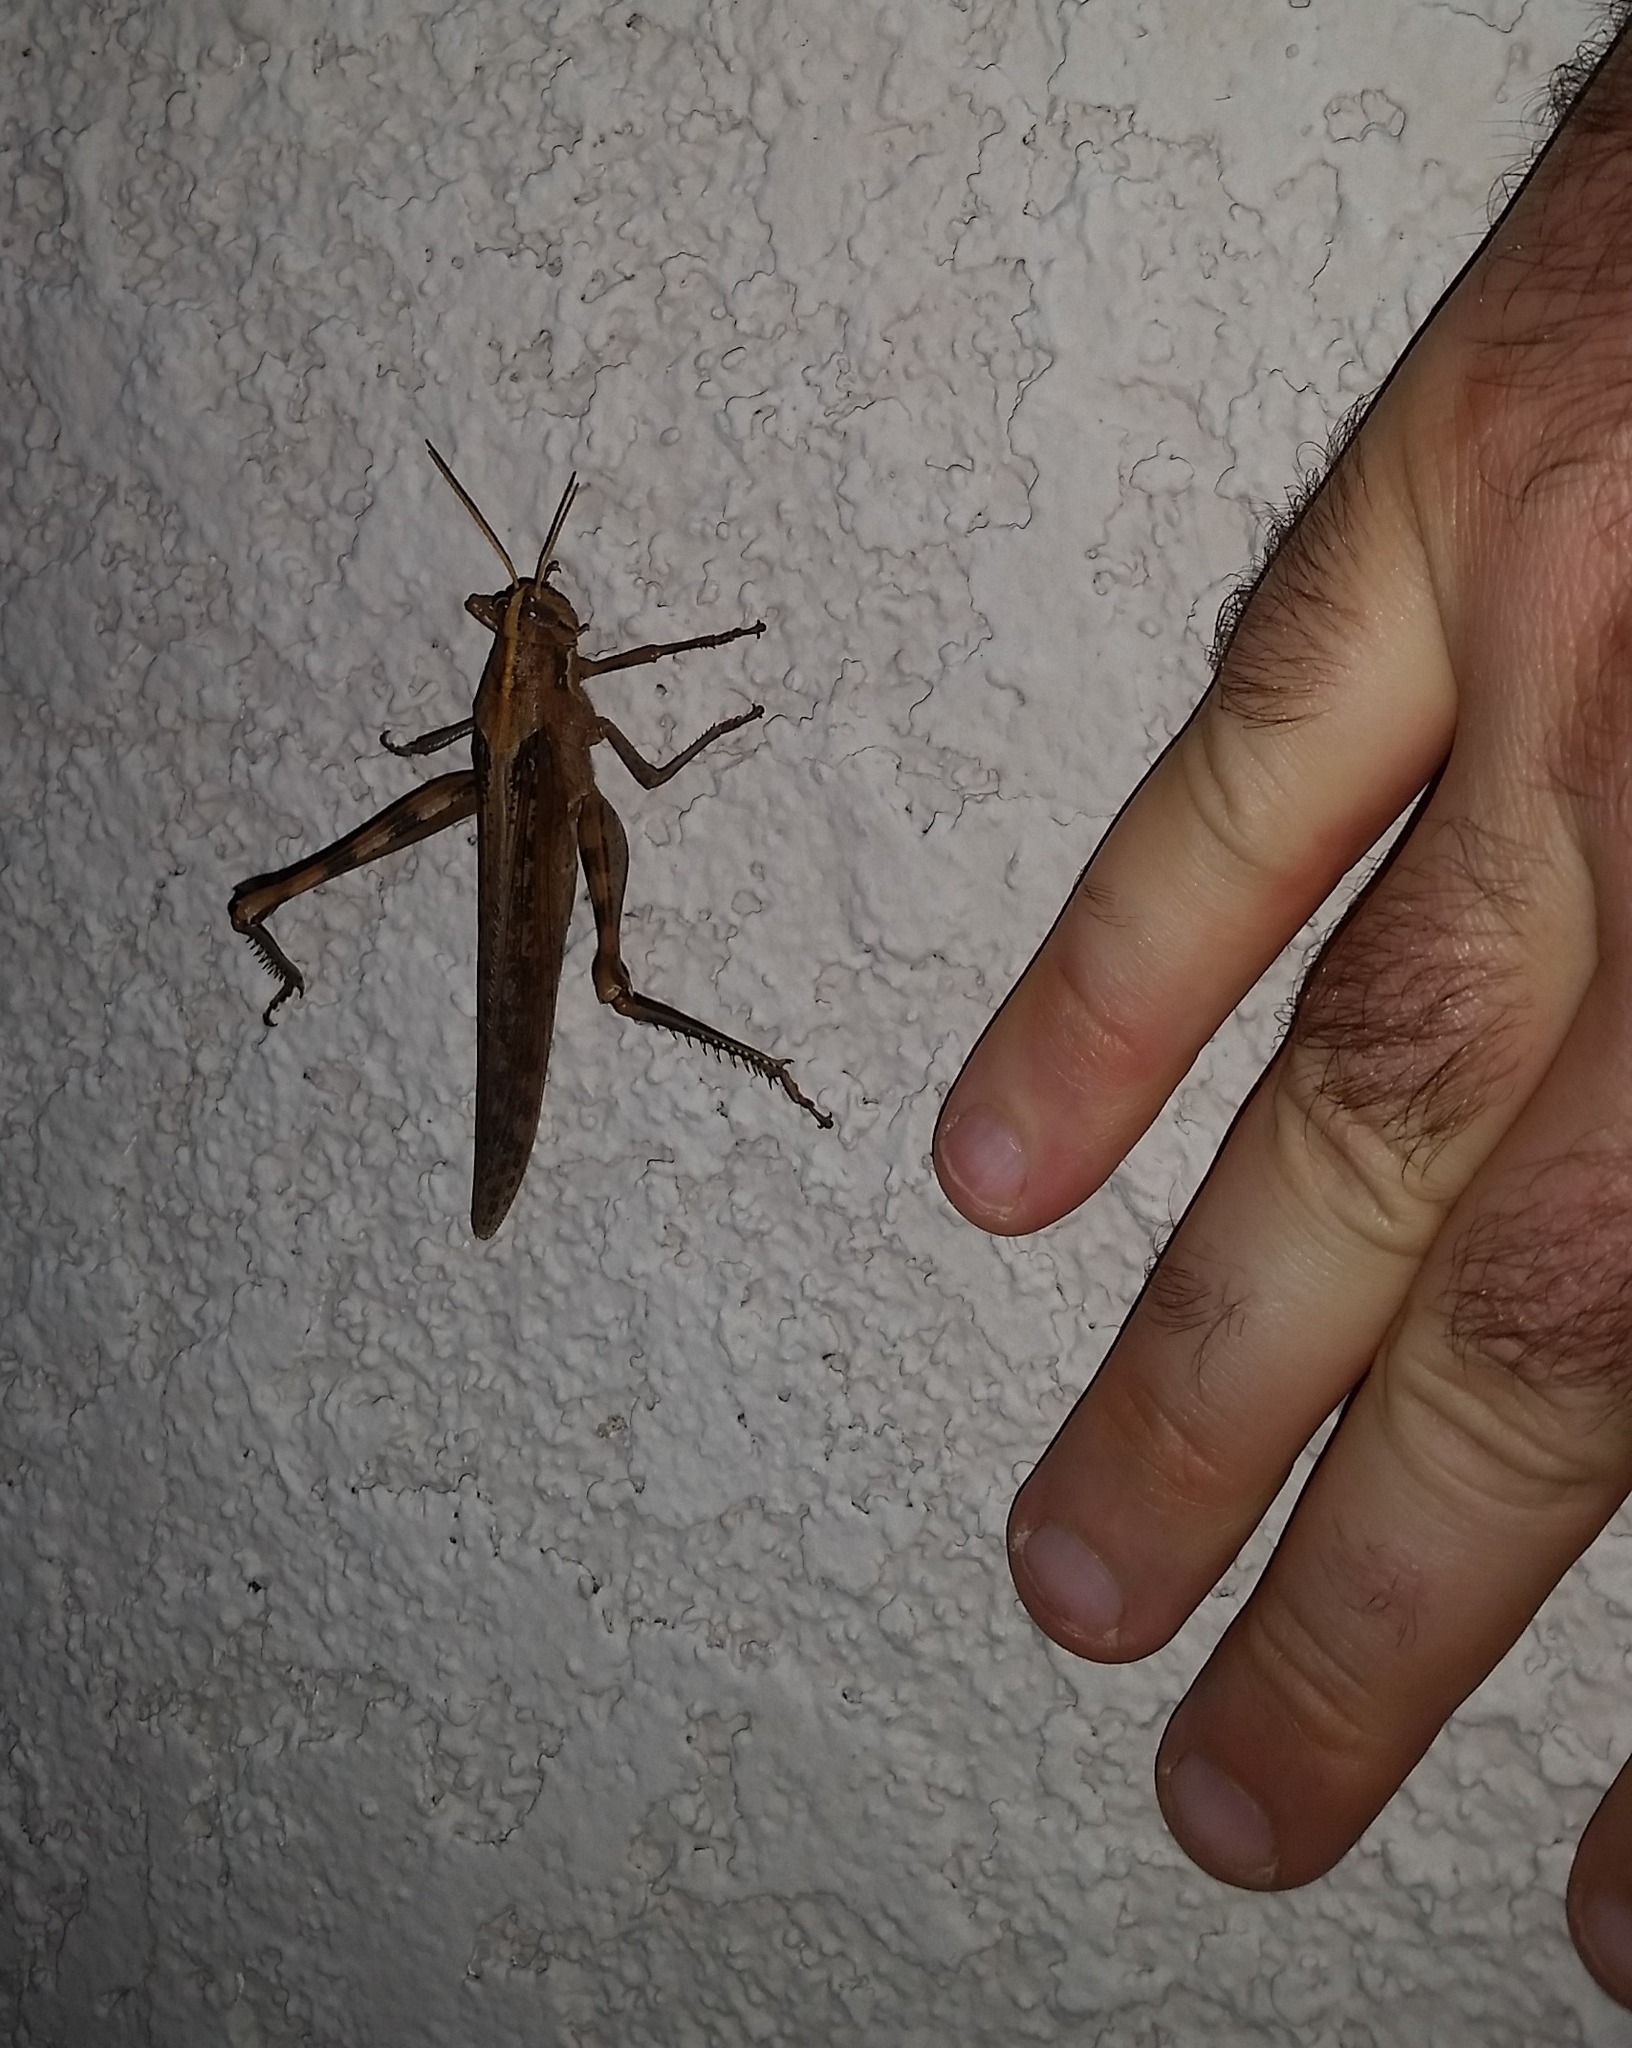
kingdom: Animalia
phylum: Arthropoda
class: Insecta
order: Orthoptera
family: Acrididae
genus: Schistocerca
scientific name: Schistocerca nitens
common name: Vagrant grasshopper
